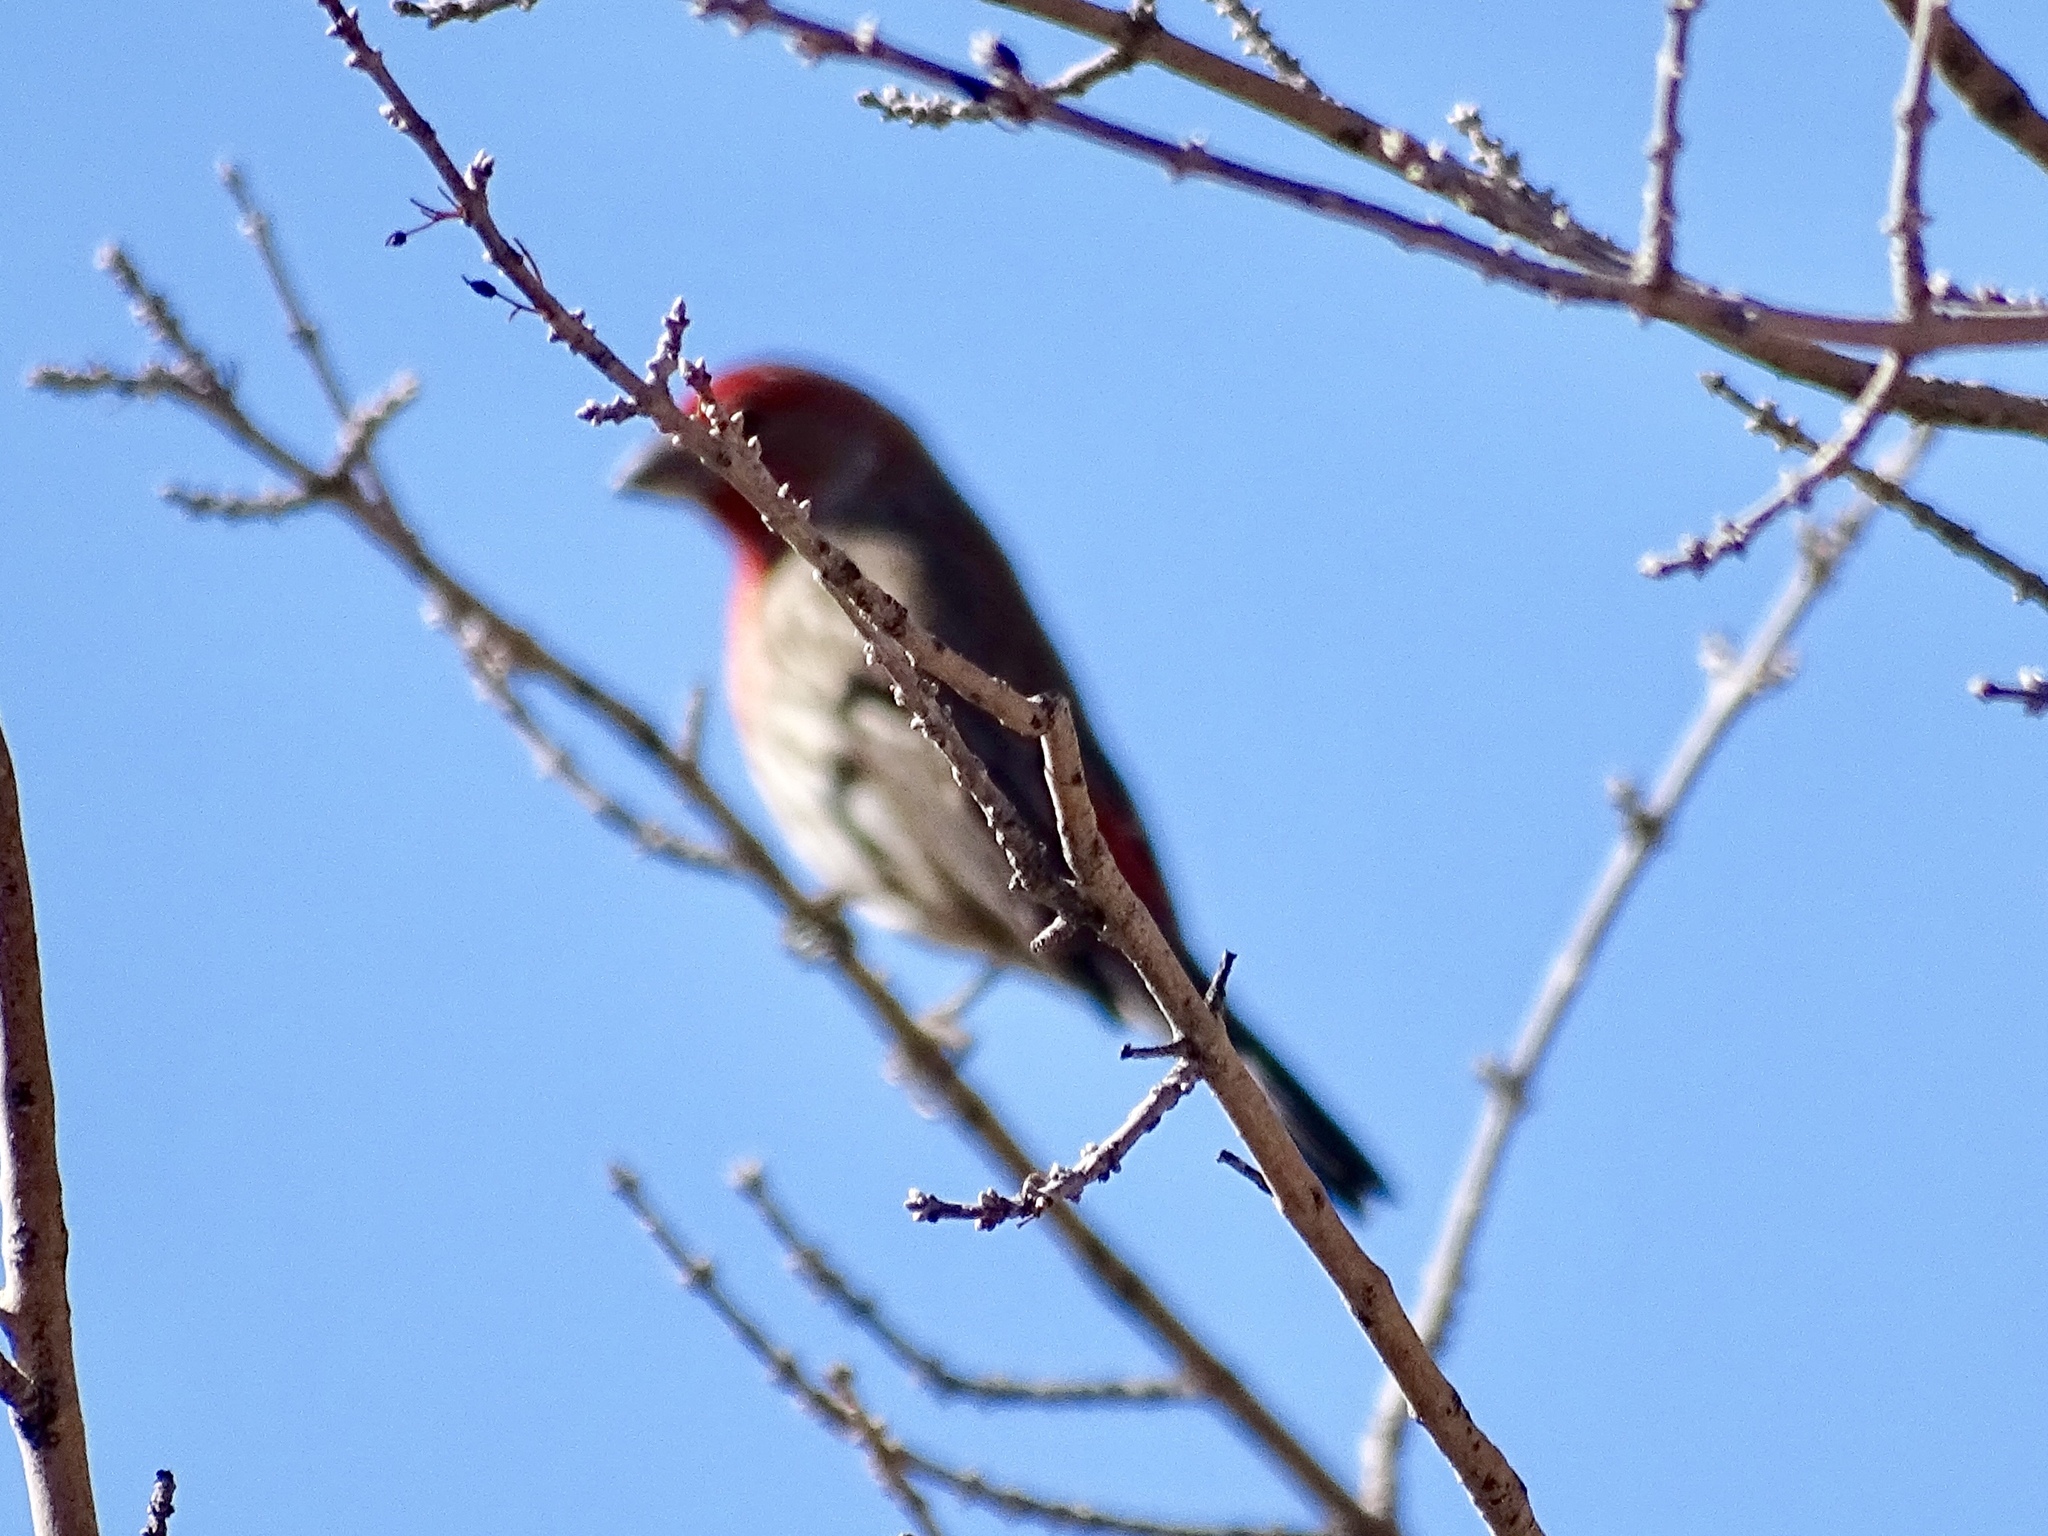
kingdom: Animalia
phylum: Chordata
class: Aves
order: Passeriformes
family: Fringillidae
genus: Haemorhous
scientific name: Haemorhous mexicanus
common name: House finch
